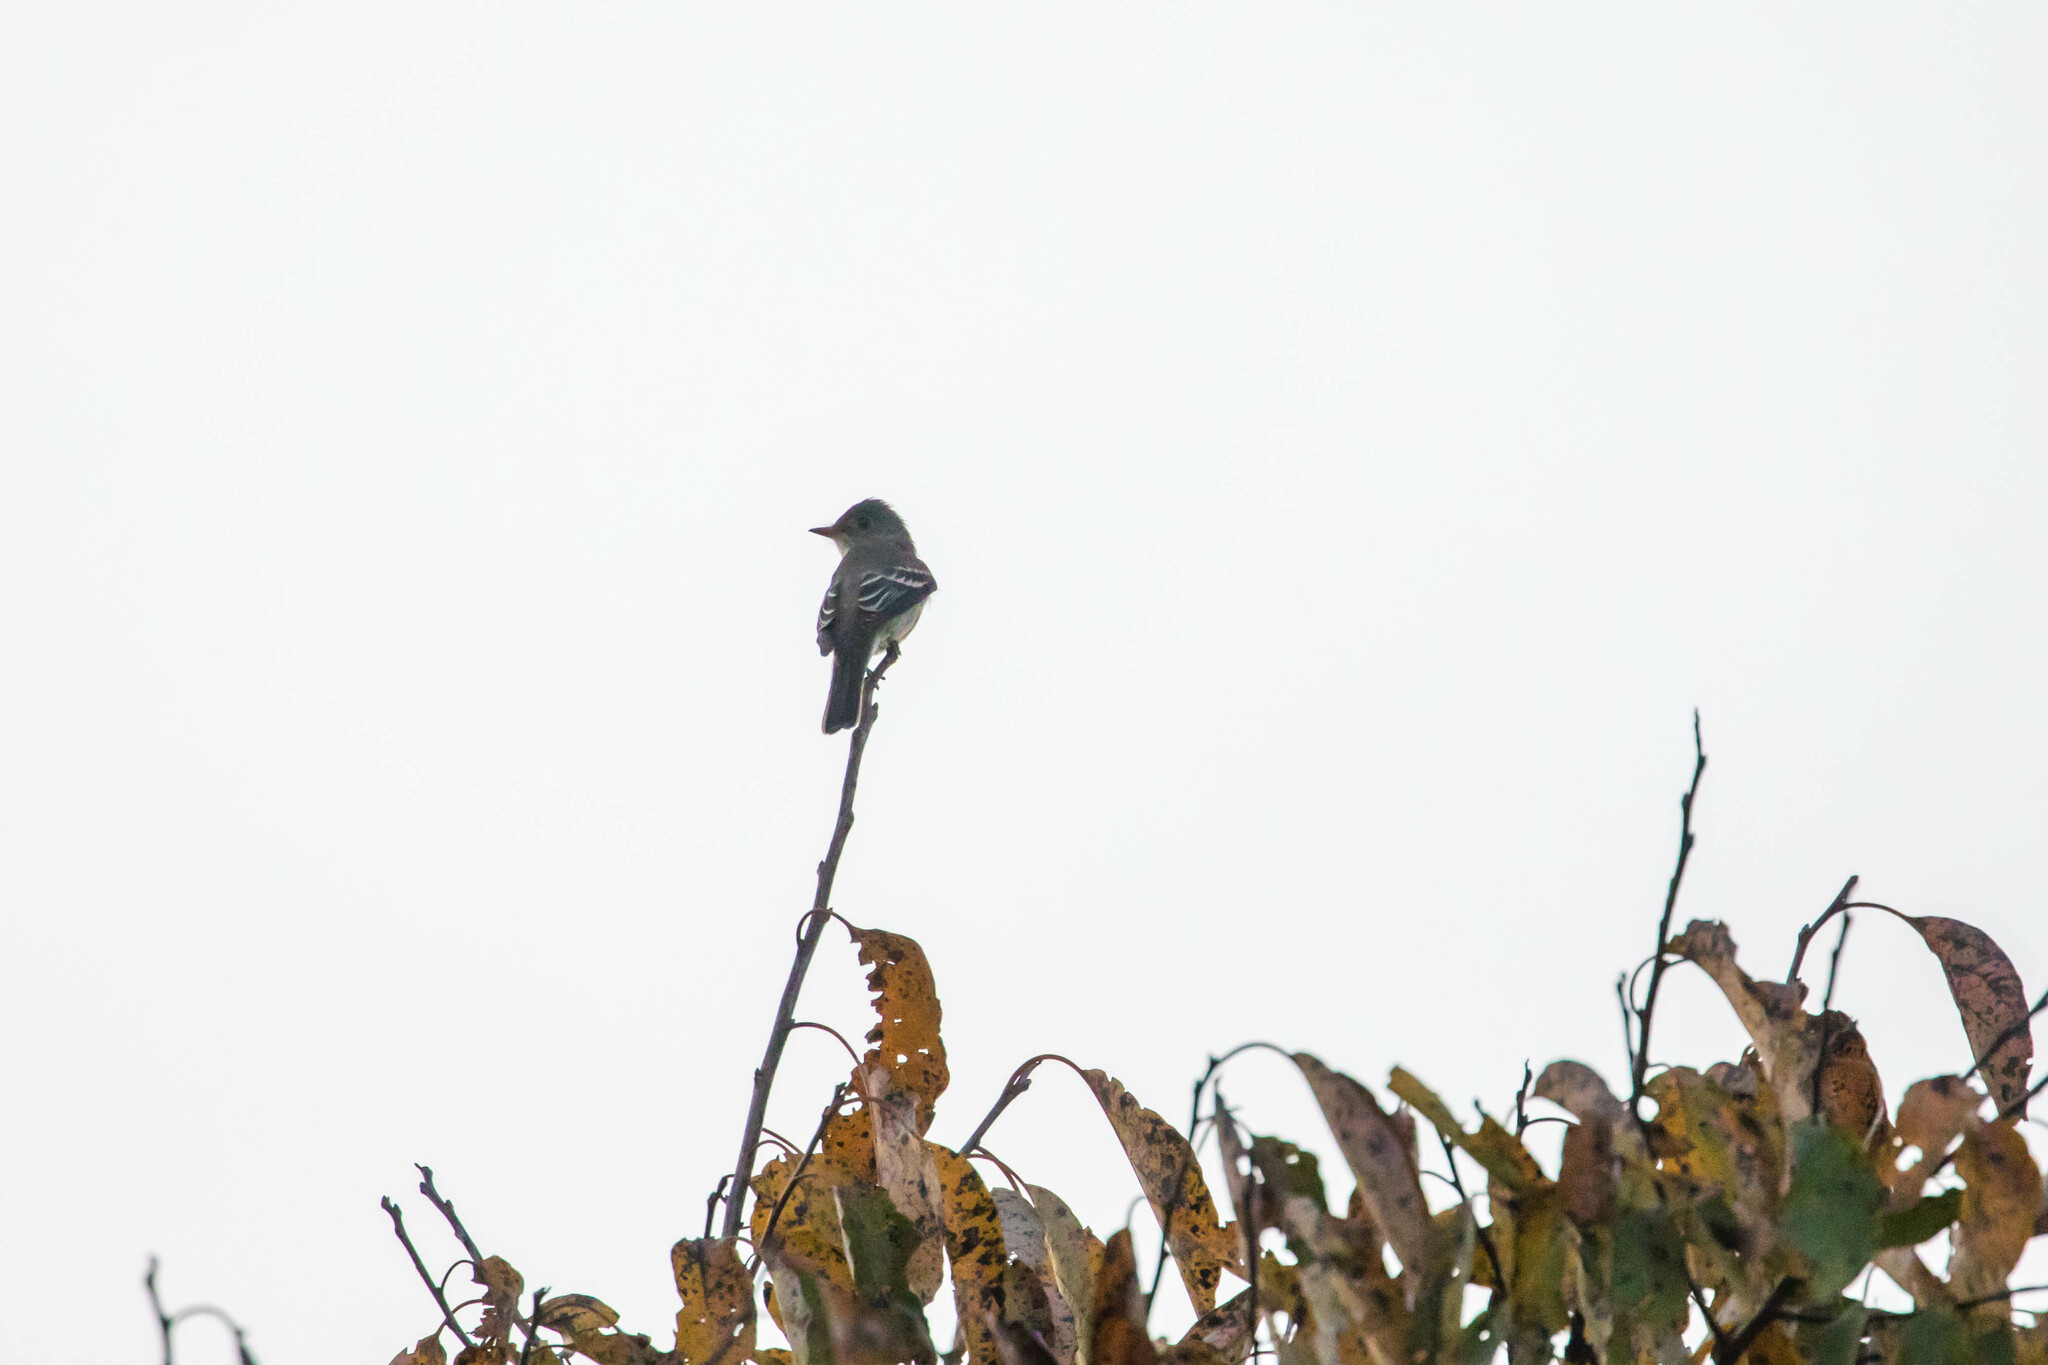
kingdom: Animalia
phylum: Chordata
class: Aves
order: Passeriformes
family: Tyrannidae
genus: Contopus
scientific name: Contopus virens
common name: Eastern wood-pewee
